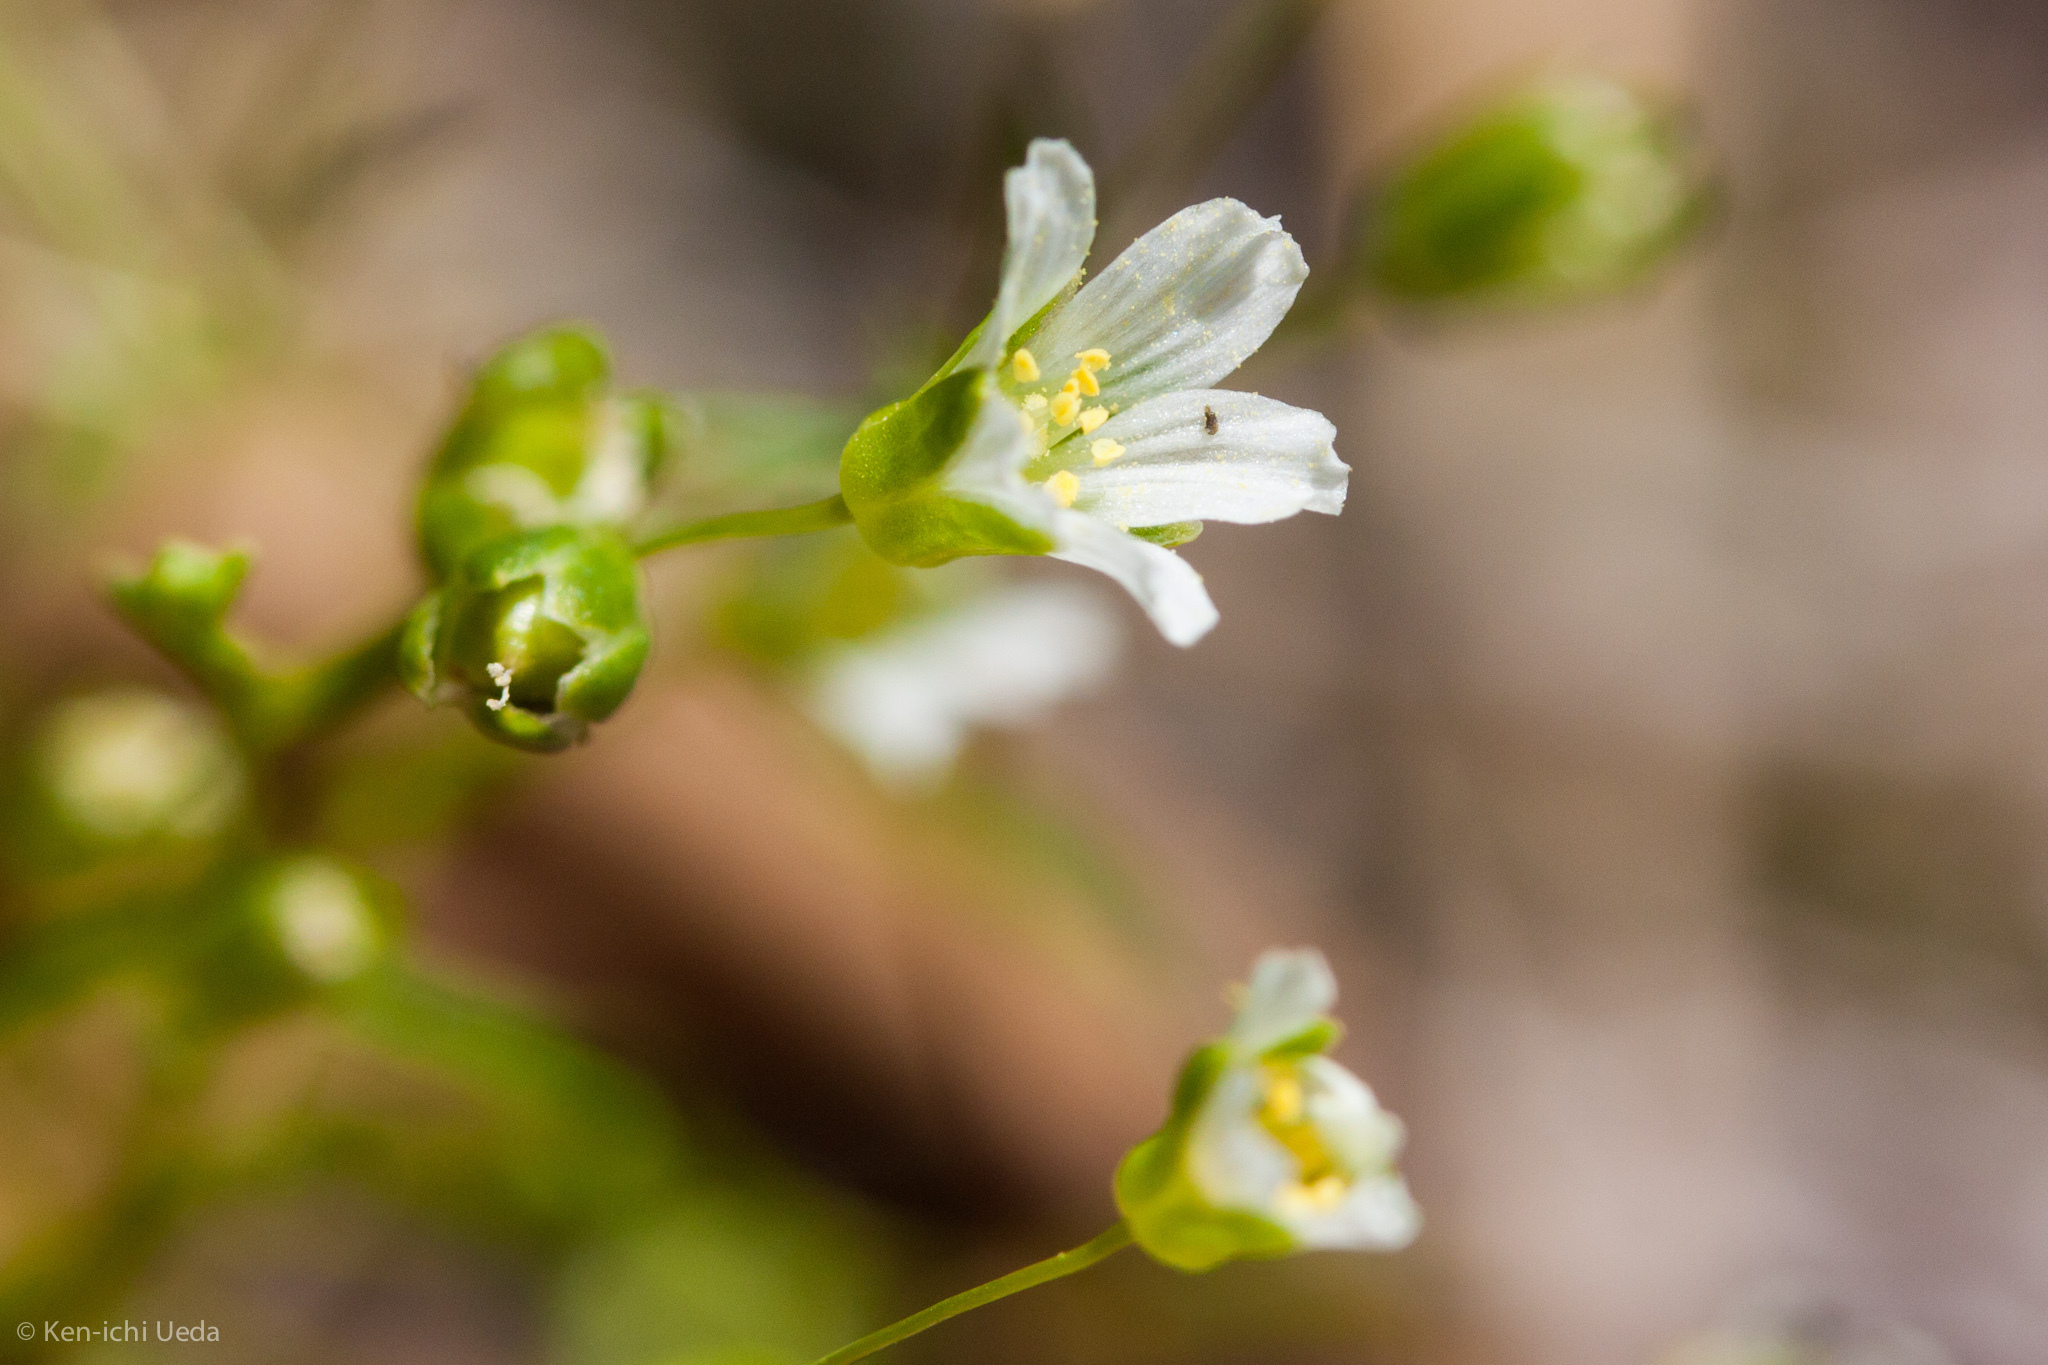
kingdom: Plantae
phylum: Tracheophyta
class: Magnoliopsida
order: Caryophyllales
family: Caryophyllaceae
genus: Geocarpon
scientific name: Geocarpon glabrum
